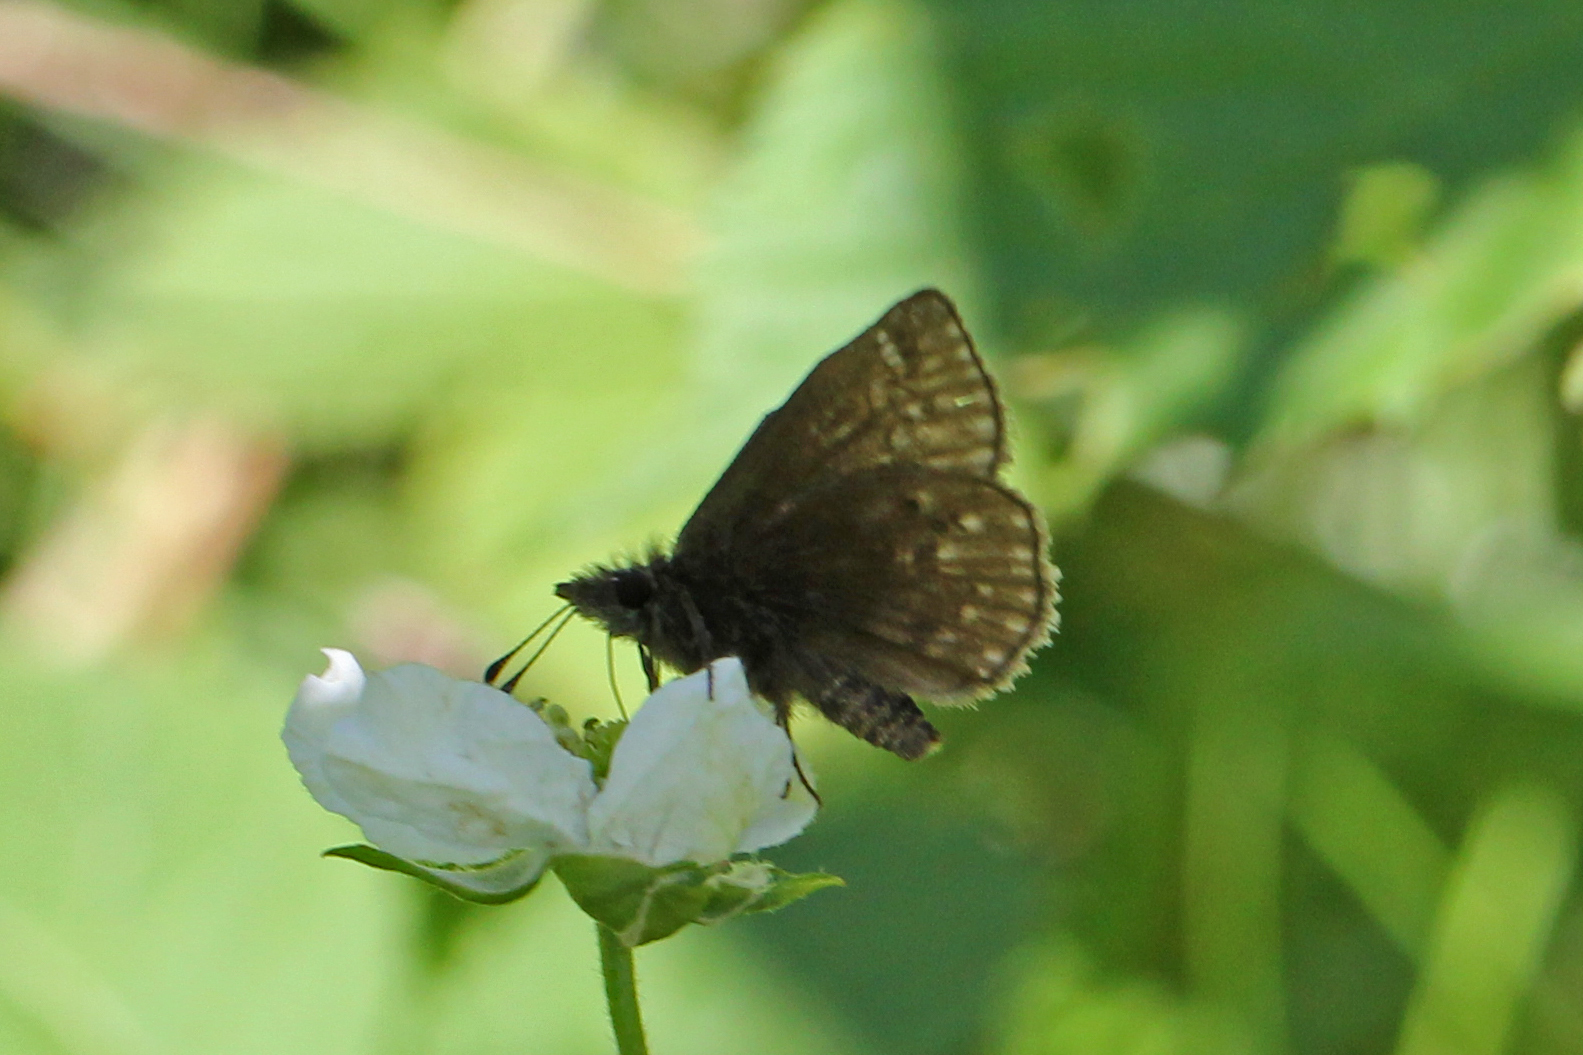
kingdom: Animalia
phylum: Arthropoda
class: Insecta
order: Lepidoptera
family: Hesperiidae
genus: Erynnis
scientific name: Erynnis icelus
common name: Dreamy duskywing
